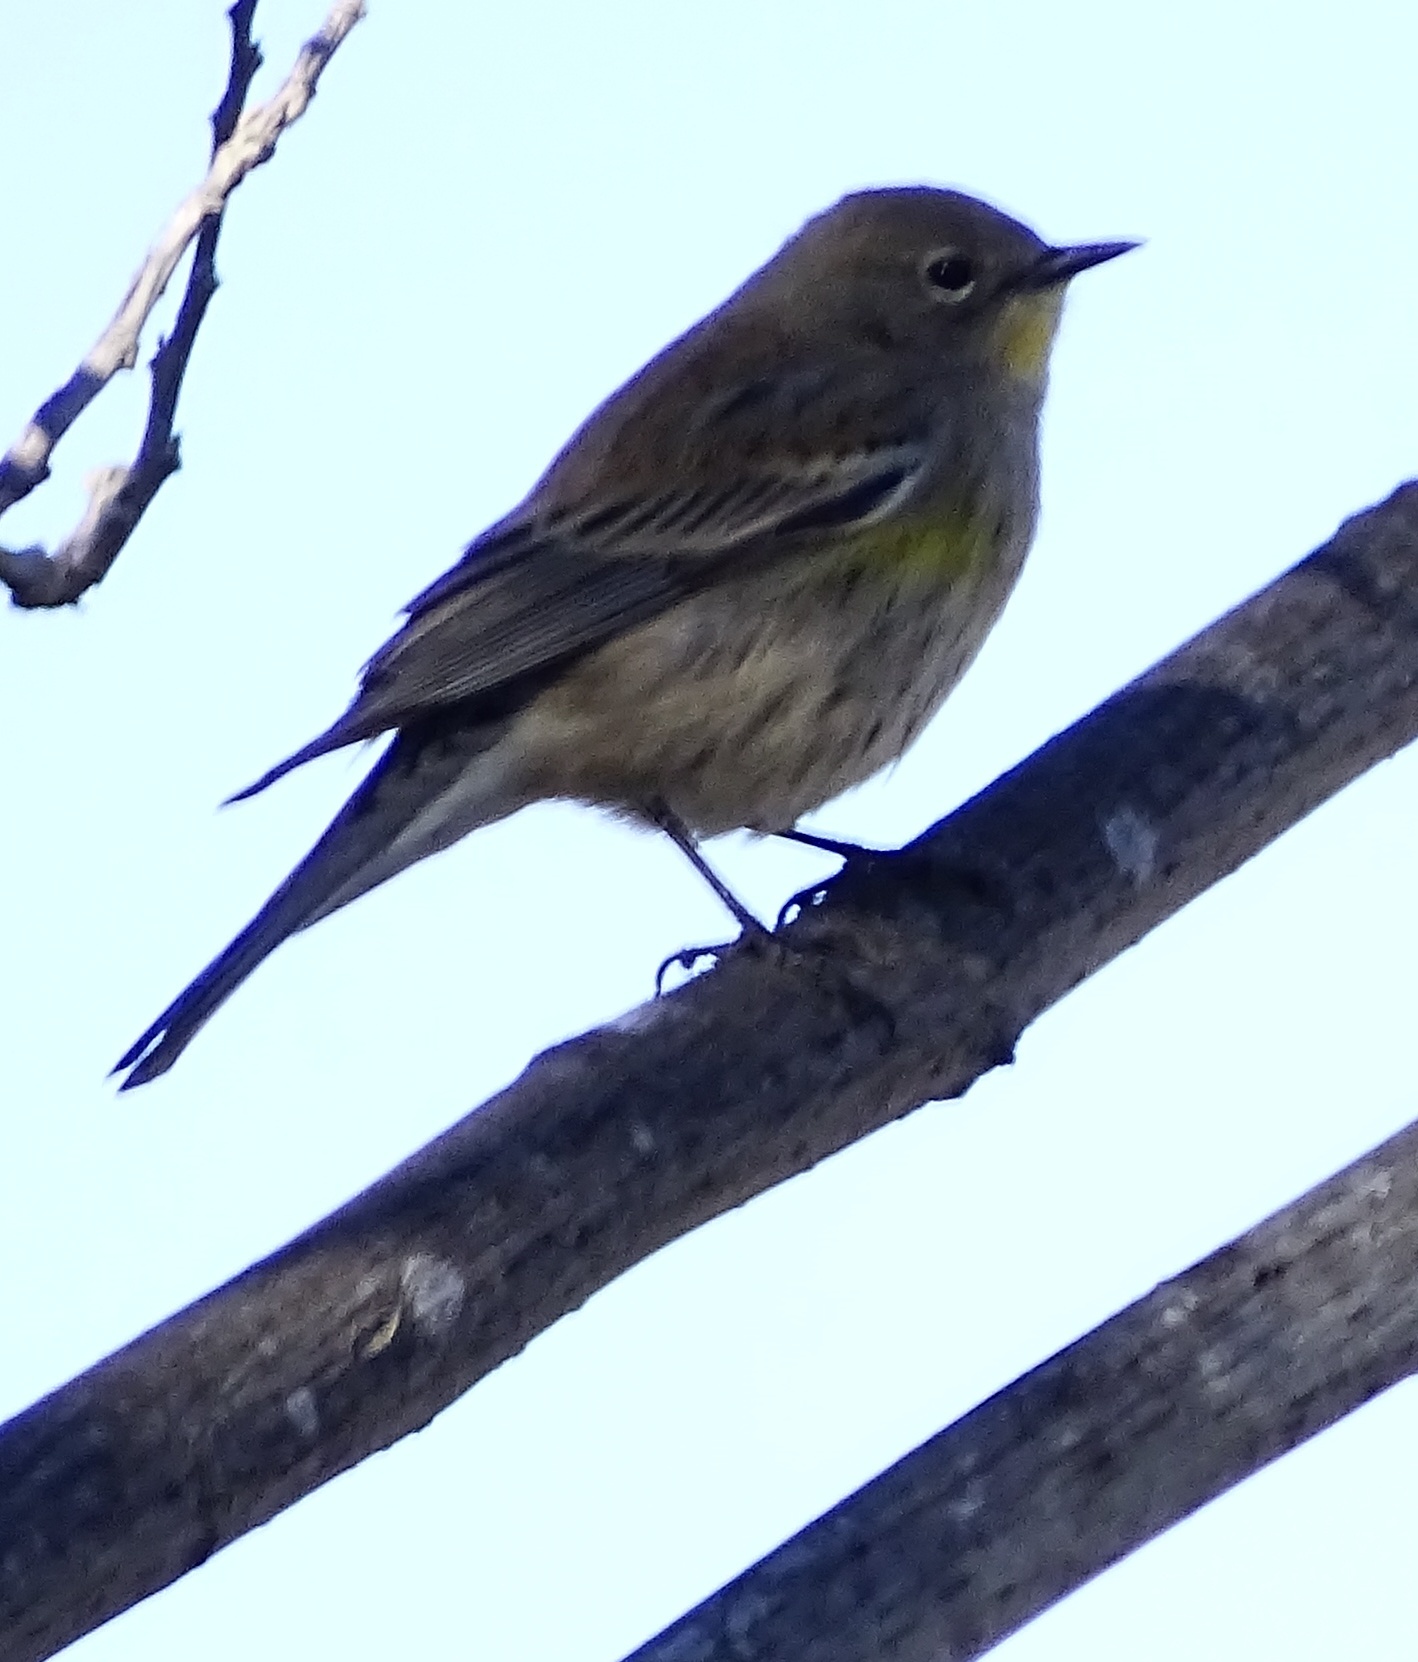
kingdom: Animalia
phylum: Chordata
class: Aves
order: Passeriformes
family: Parulidae
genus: Setophaga
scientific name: Setophaga coronata
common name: Myrtle warbler
